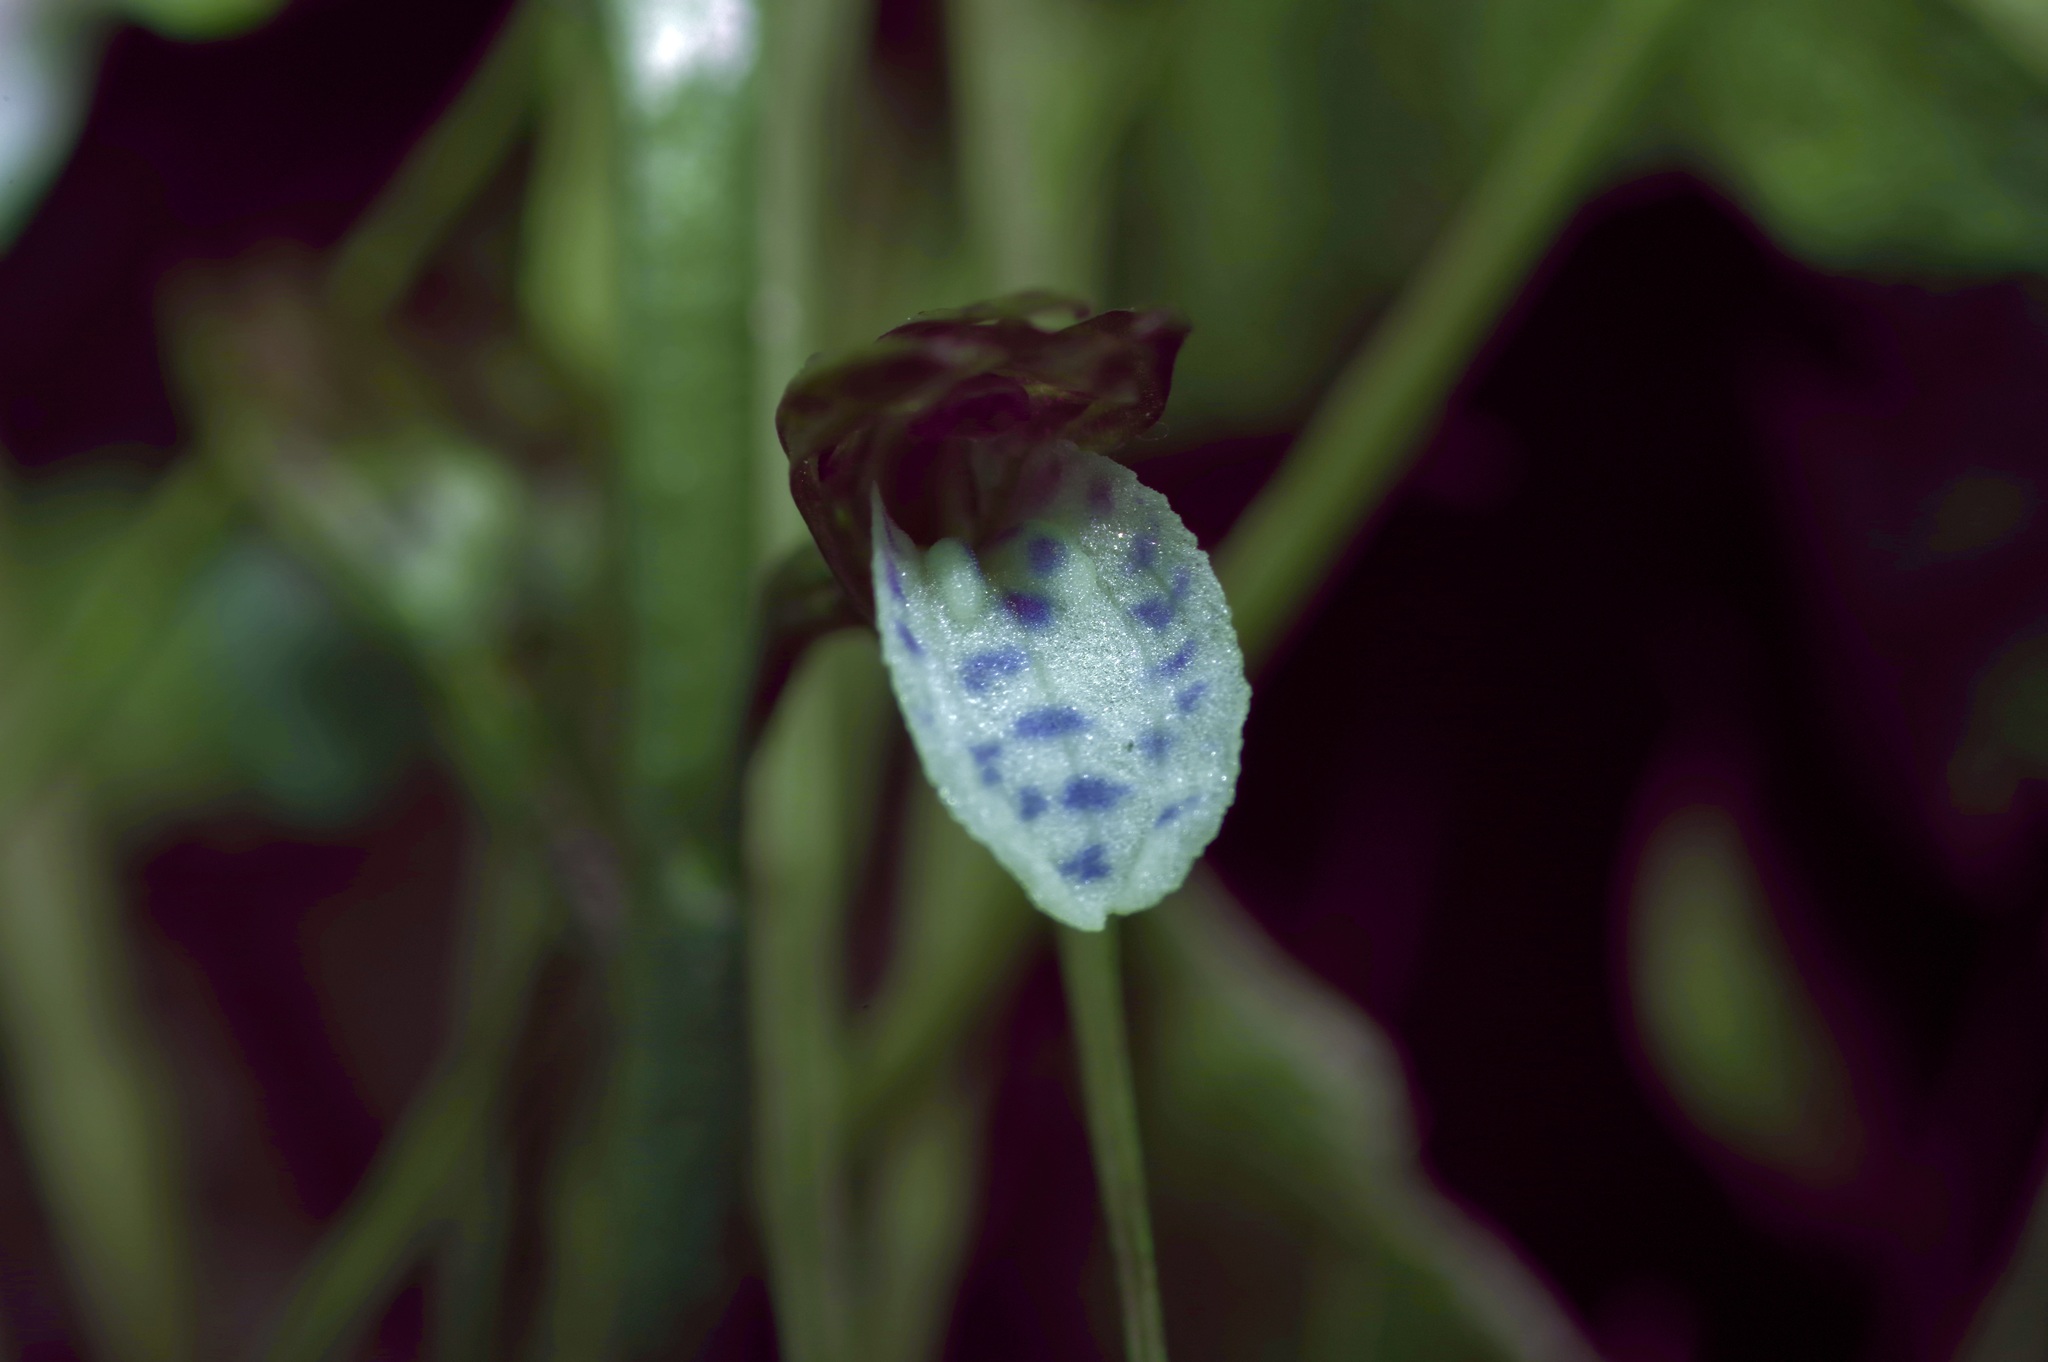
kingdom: Plantae
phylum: Tracheophyta
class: Liliopsida
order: Asparagales
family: Orchidaceae
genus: Corallorhiza
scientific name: Corallorhiza wisteriana
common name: Spring coralroot
